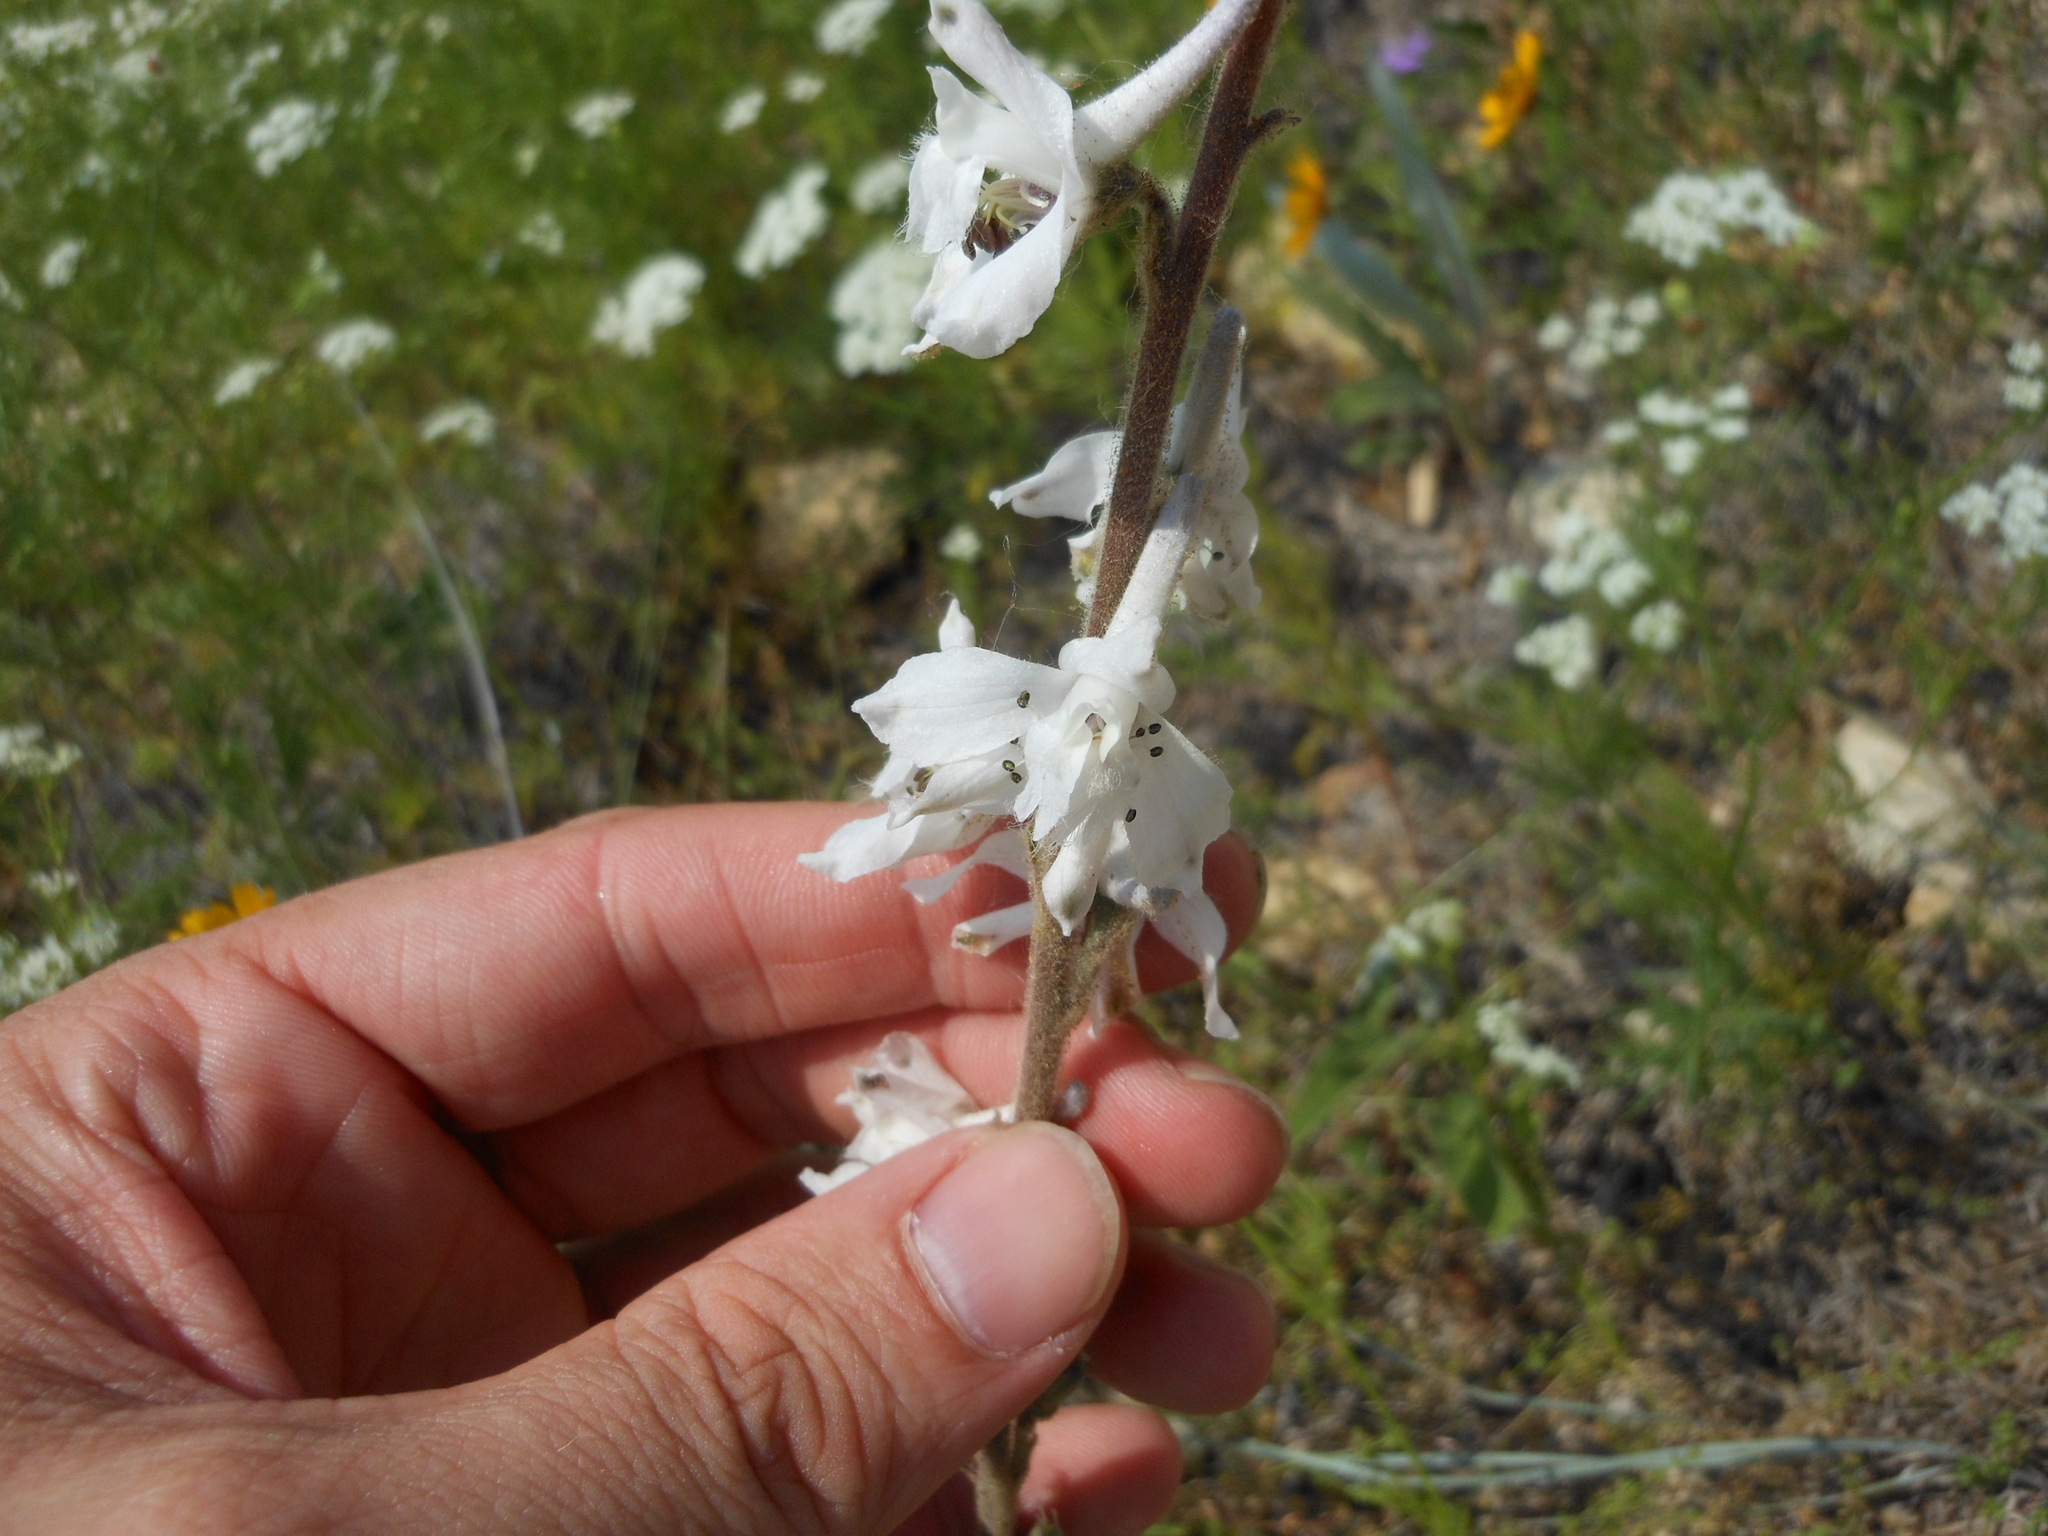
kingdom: Plantae
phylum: Tracheophyta
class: Magnoliopsida
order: Ranunculales
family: Ranunculaceae
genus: Delphinium
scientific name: Delphinium carolinianum
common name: Carolina larkspur
